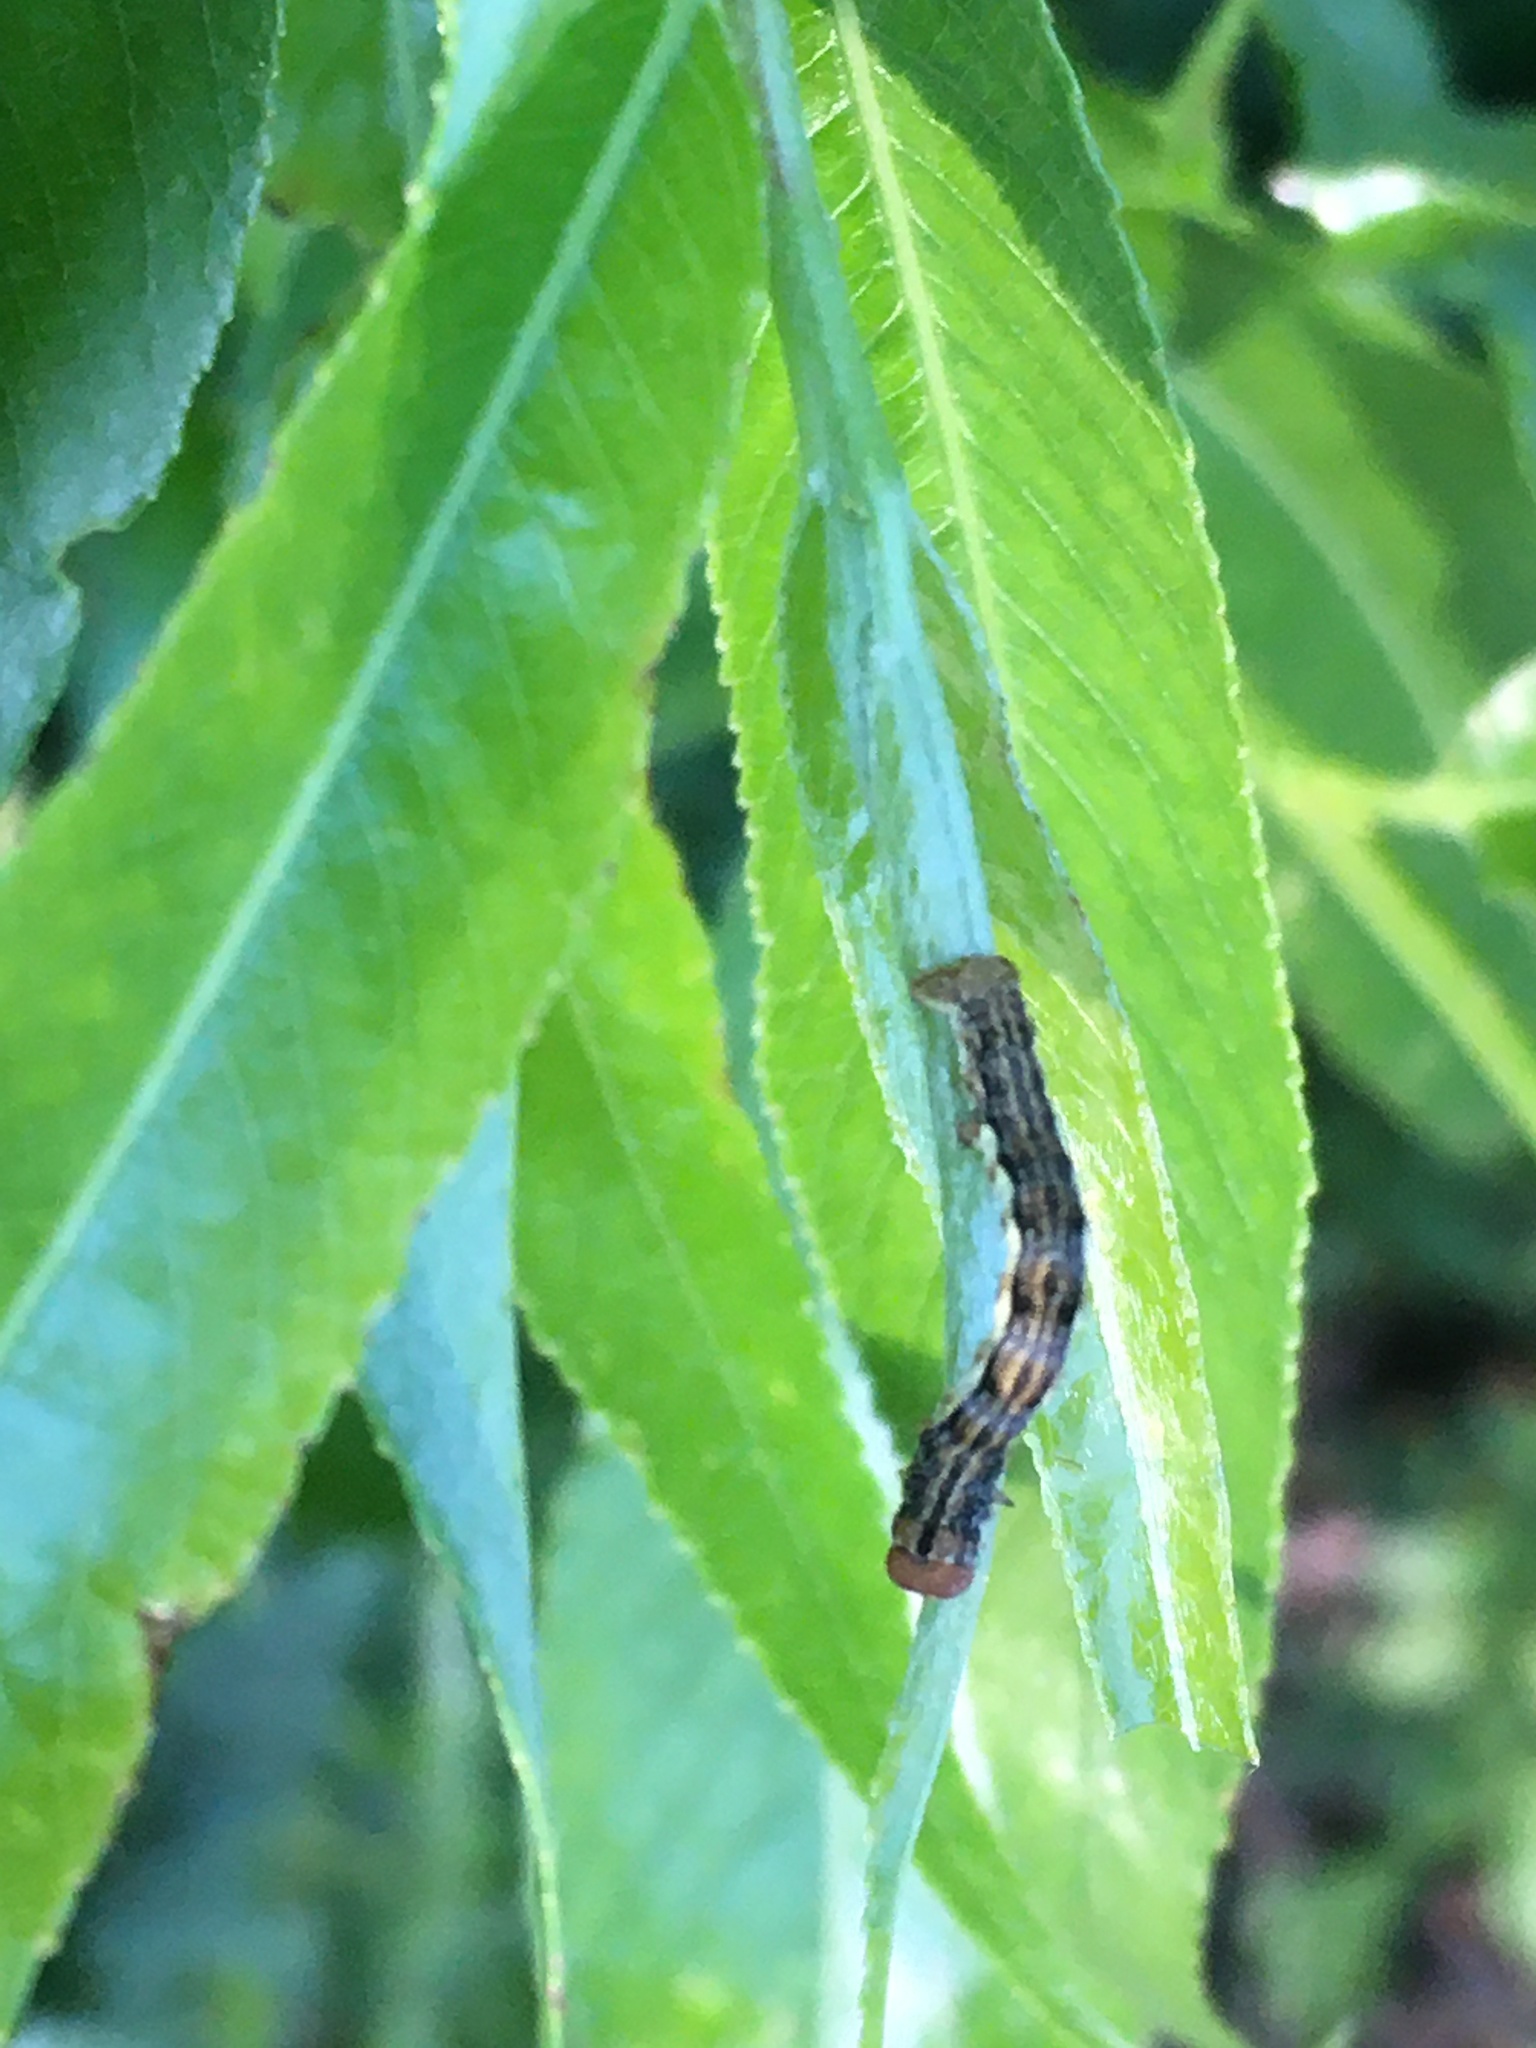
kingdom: Animalia
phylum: Arthropoda
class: Insecta
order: Lepidoptera
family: Geometridae
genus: Erannis
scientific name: Erannis defoliaria
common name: Mottled umber
